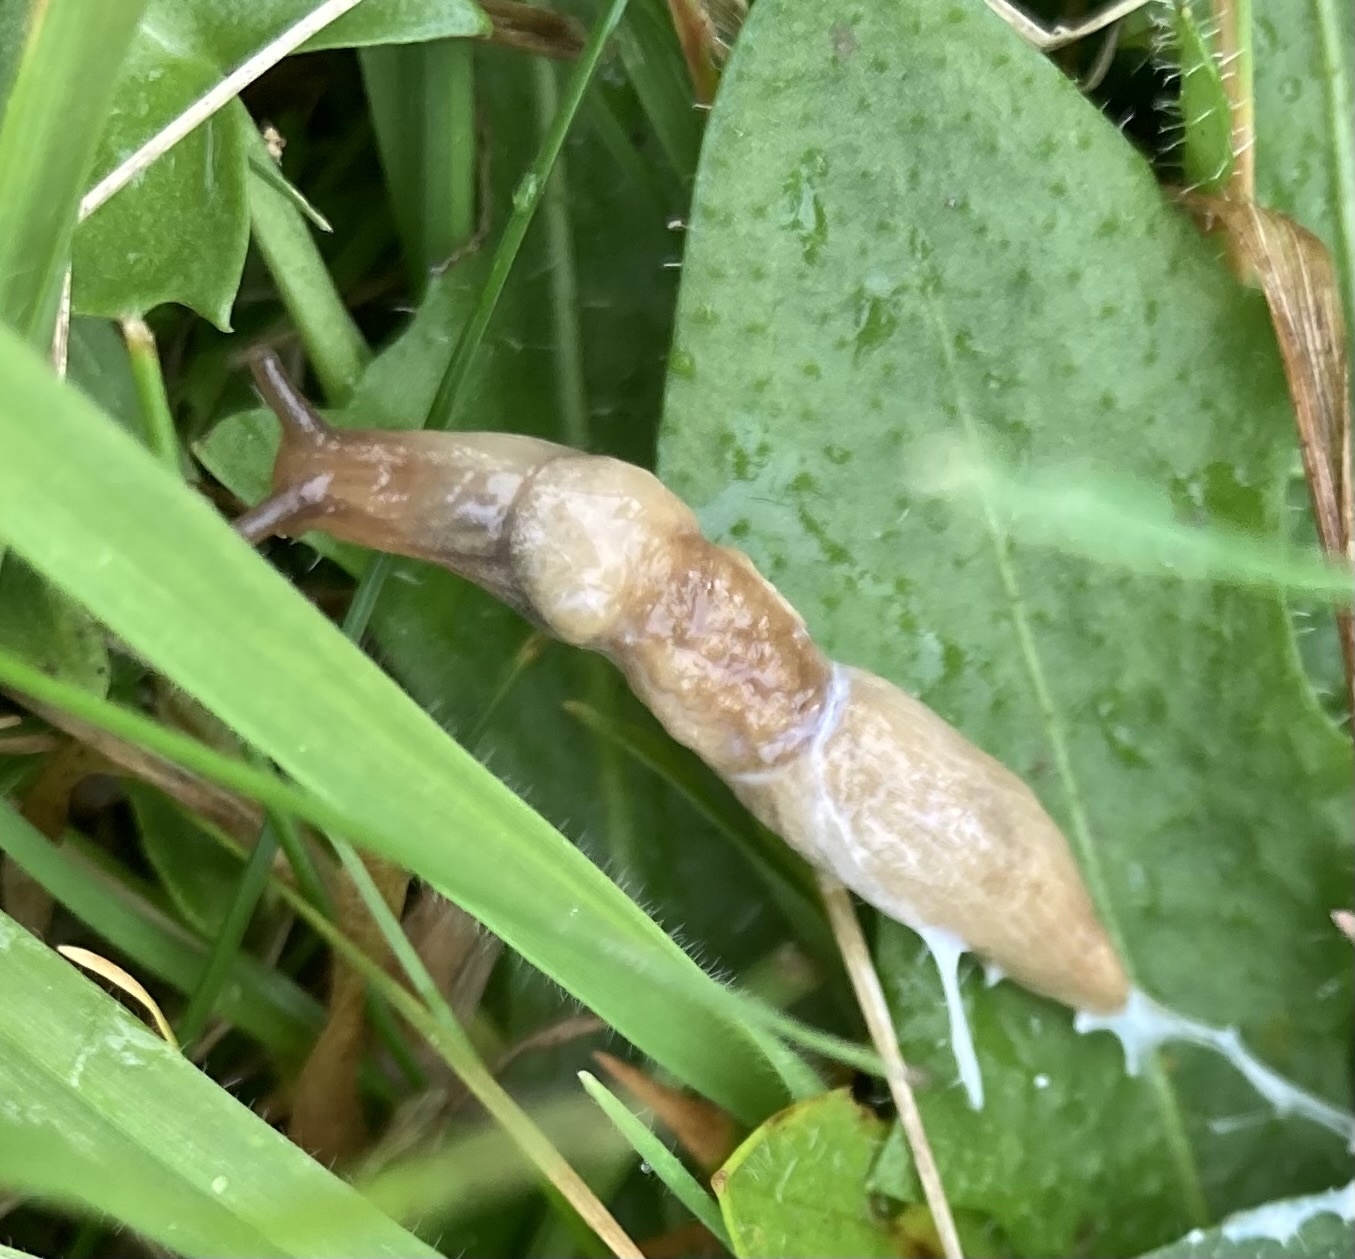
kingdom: Animalia
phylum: Mollusca
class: Gastropoda
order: Stylommatophora
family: Agriolimacidae
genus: Deroceras
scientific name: Deroceras reticulatum
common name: Gray field slug
